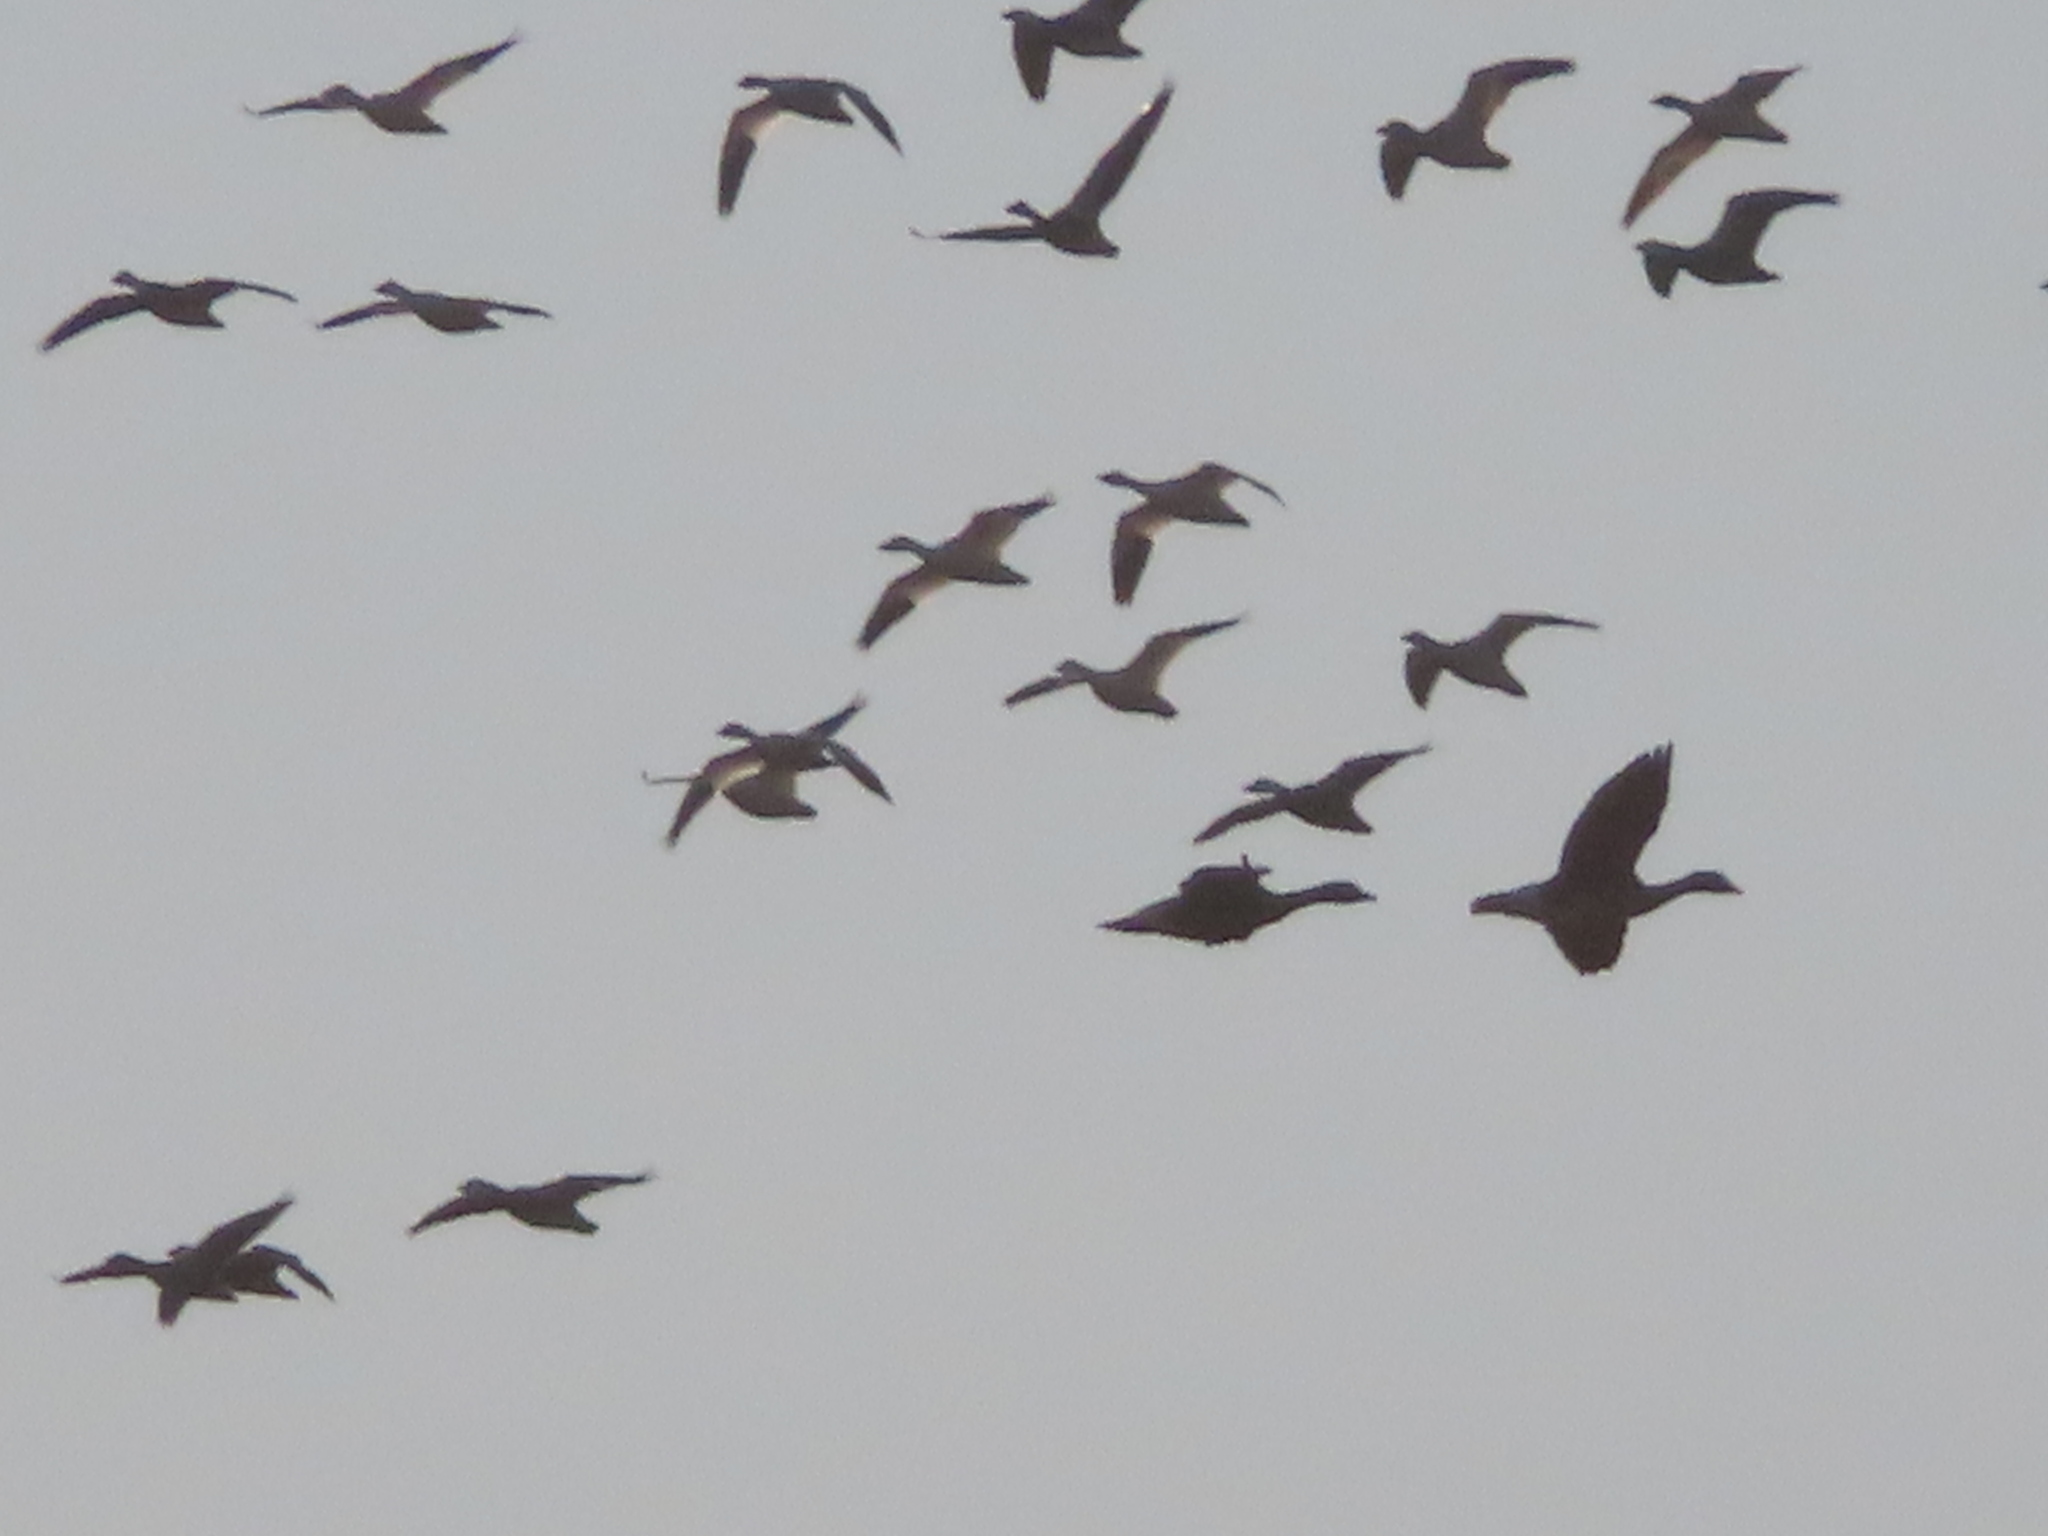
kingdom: Animalia
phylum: Chordata
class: Aves
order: Anseriformes
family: Anatidae
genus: Anser
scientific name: Anser caerulescens
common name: Snow goose
